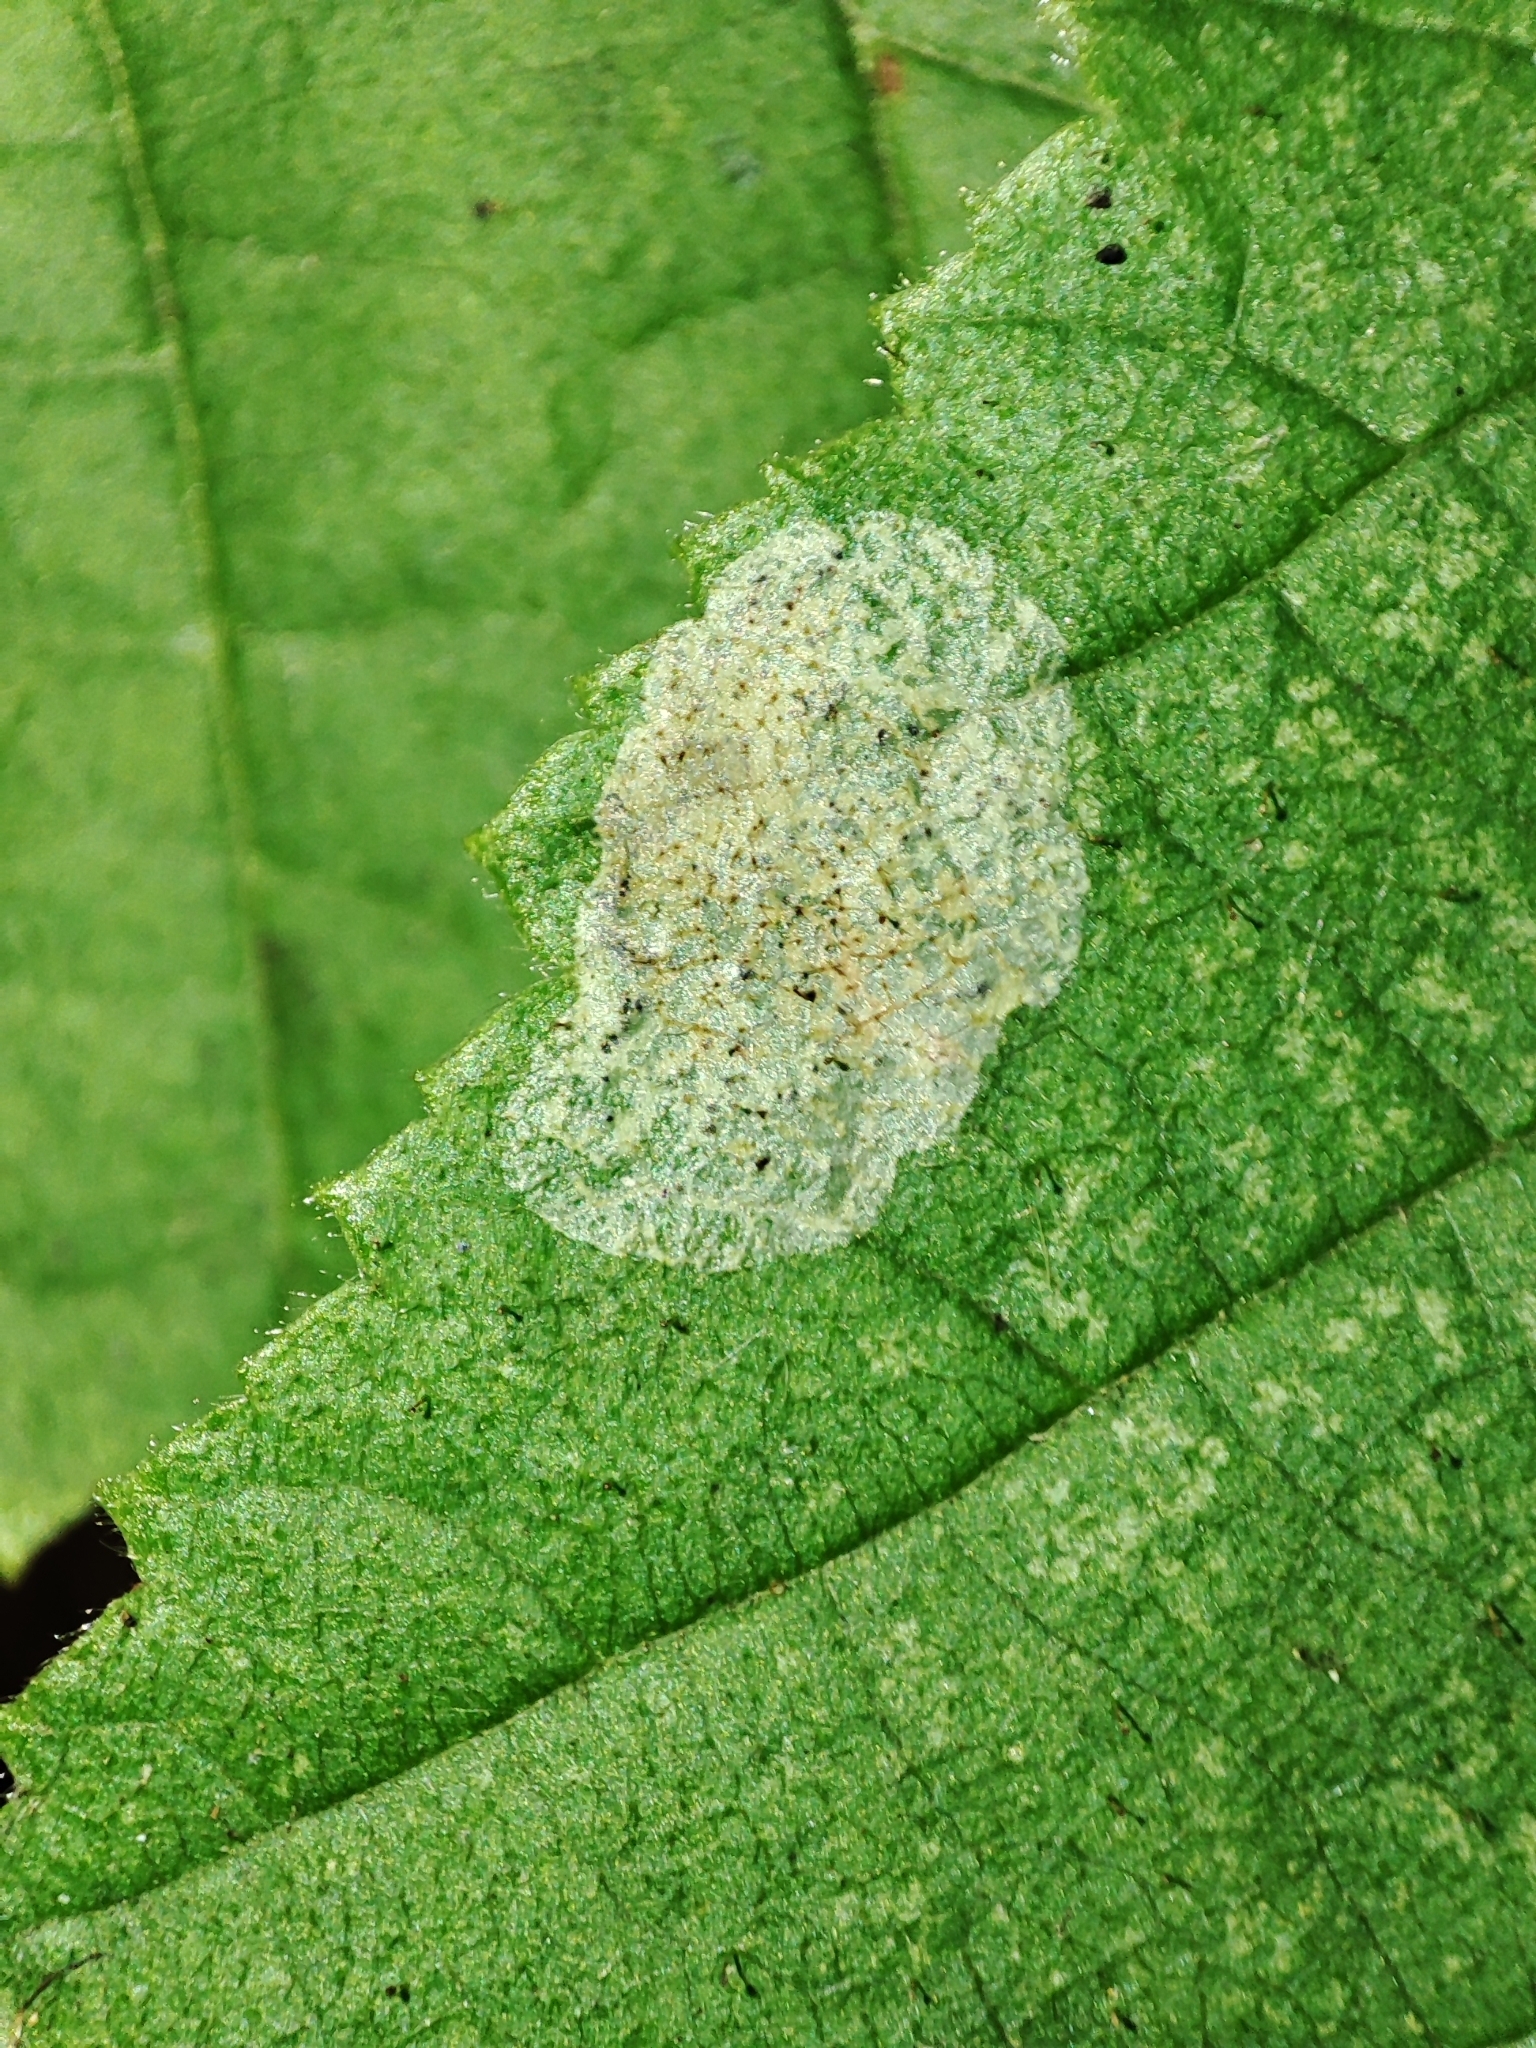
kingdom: Animalia
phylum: Arthropoda
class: Insecta
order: Lepidoptera
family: Gracillariidae
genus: Phyllonorycter
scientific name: Phyllonorycter coryli
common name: Nut-leaf blister moth
